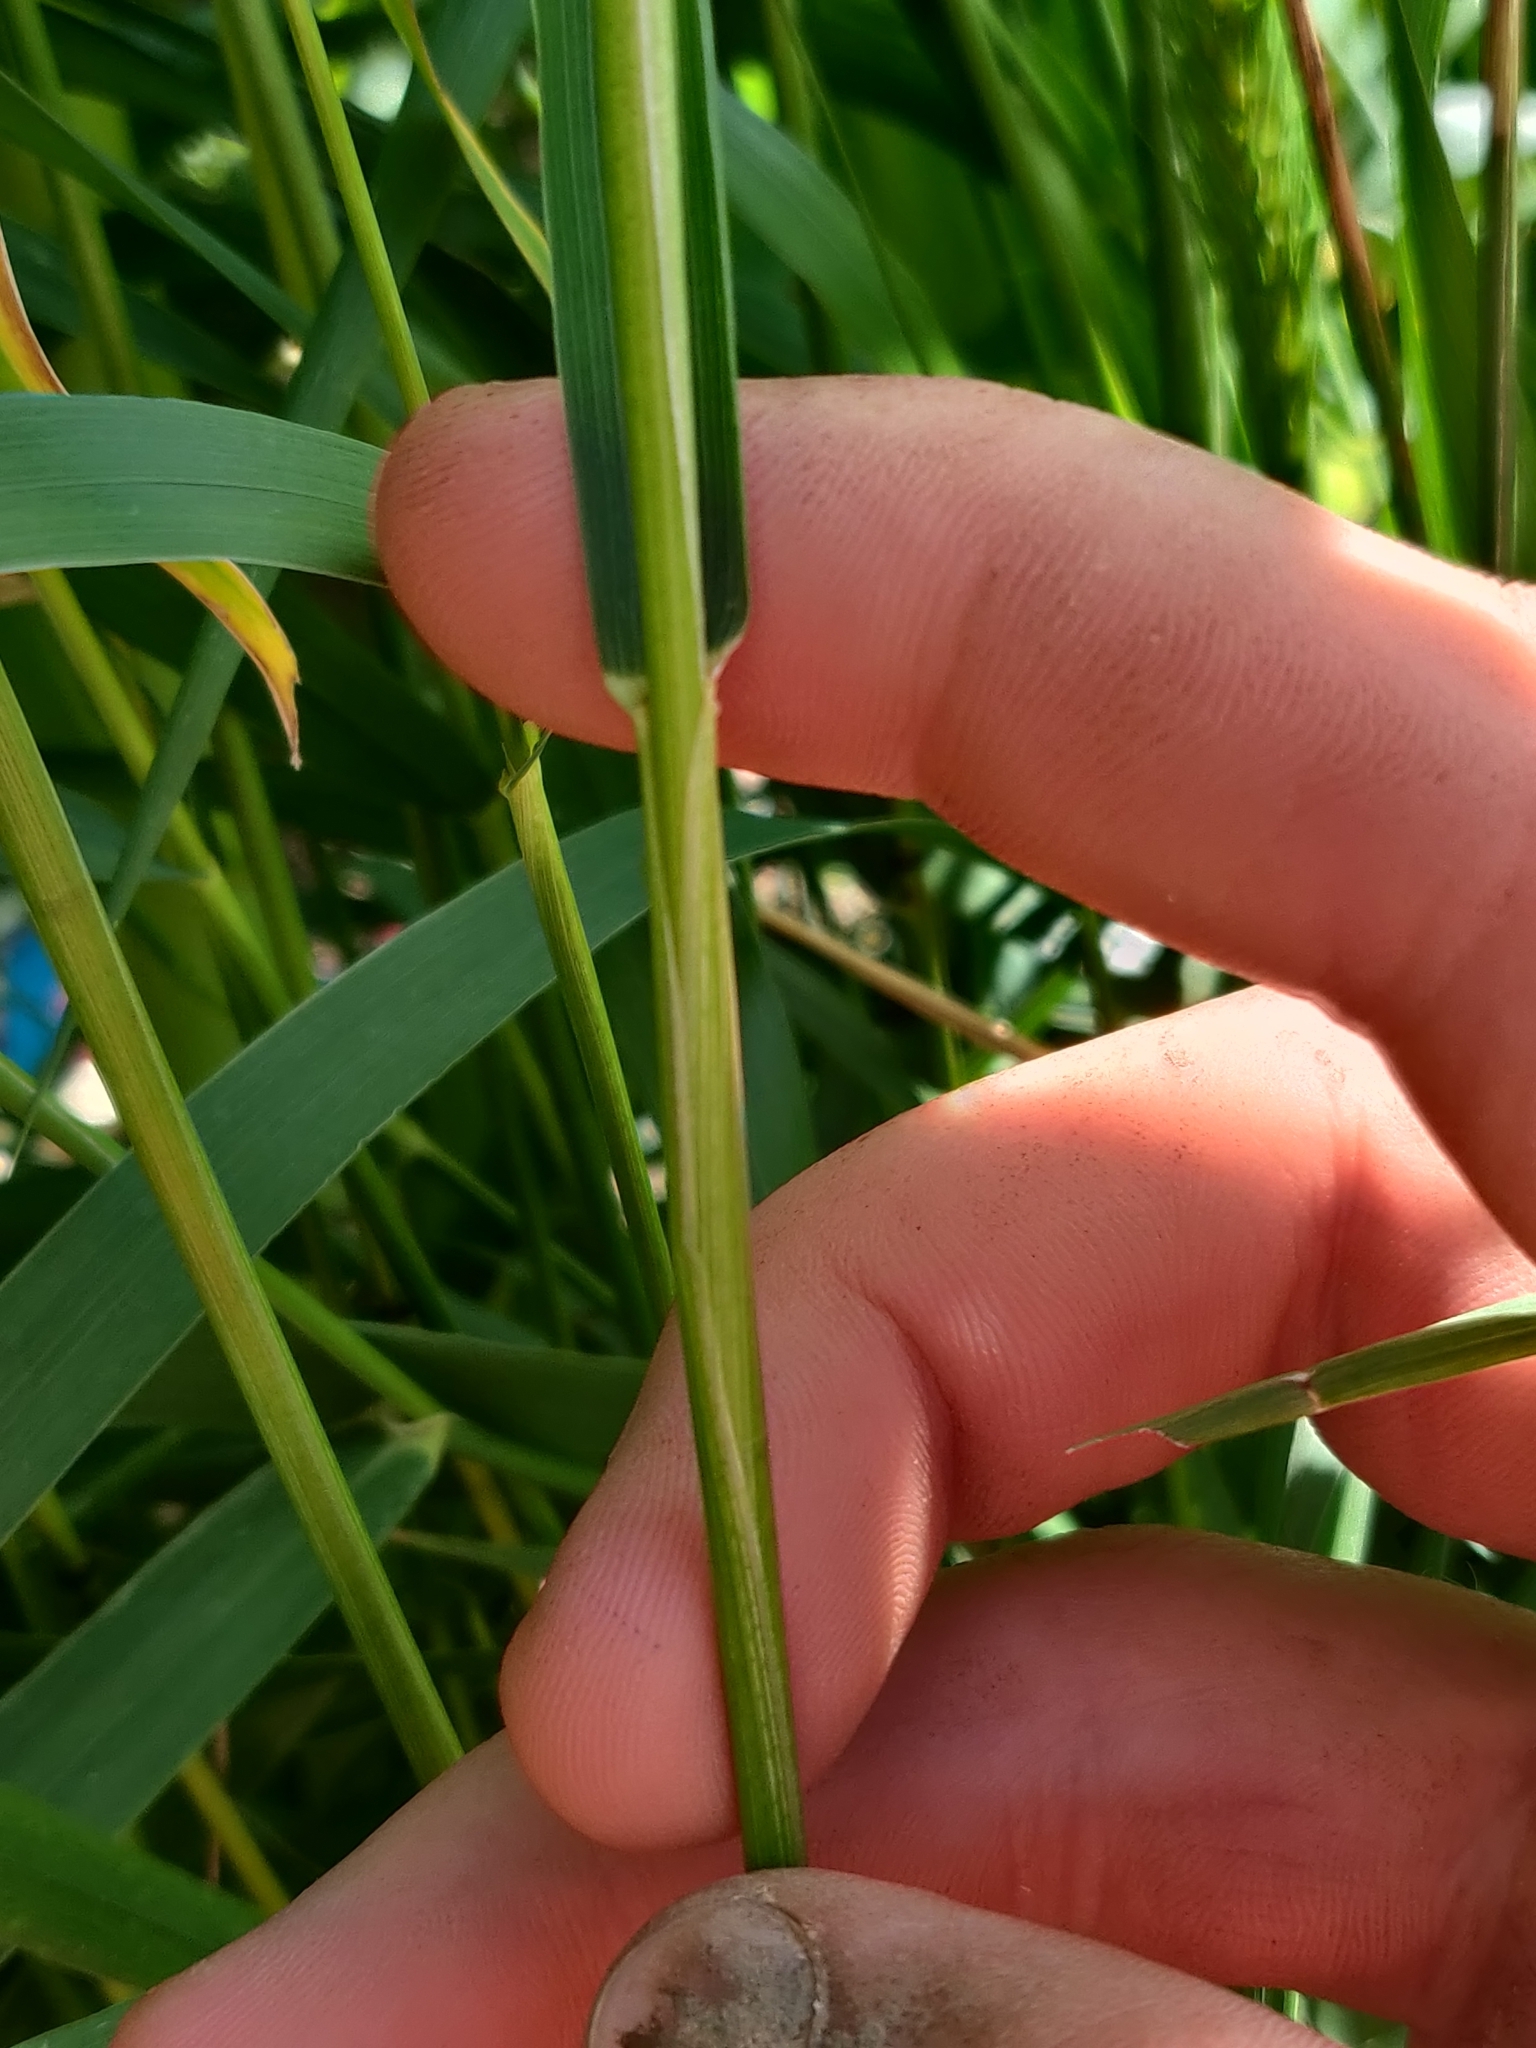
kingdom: Plantae
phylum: Tracheophyta
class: Liliopsida
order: Poales
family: Poaceae
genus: Elymus
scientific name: Elymus virginicus
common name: Common eastern wildrye
